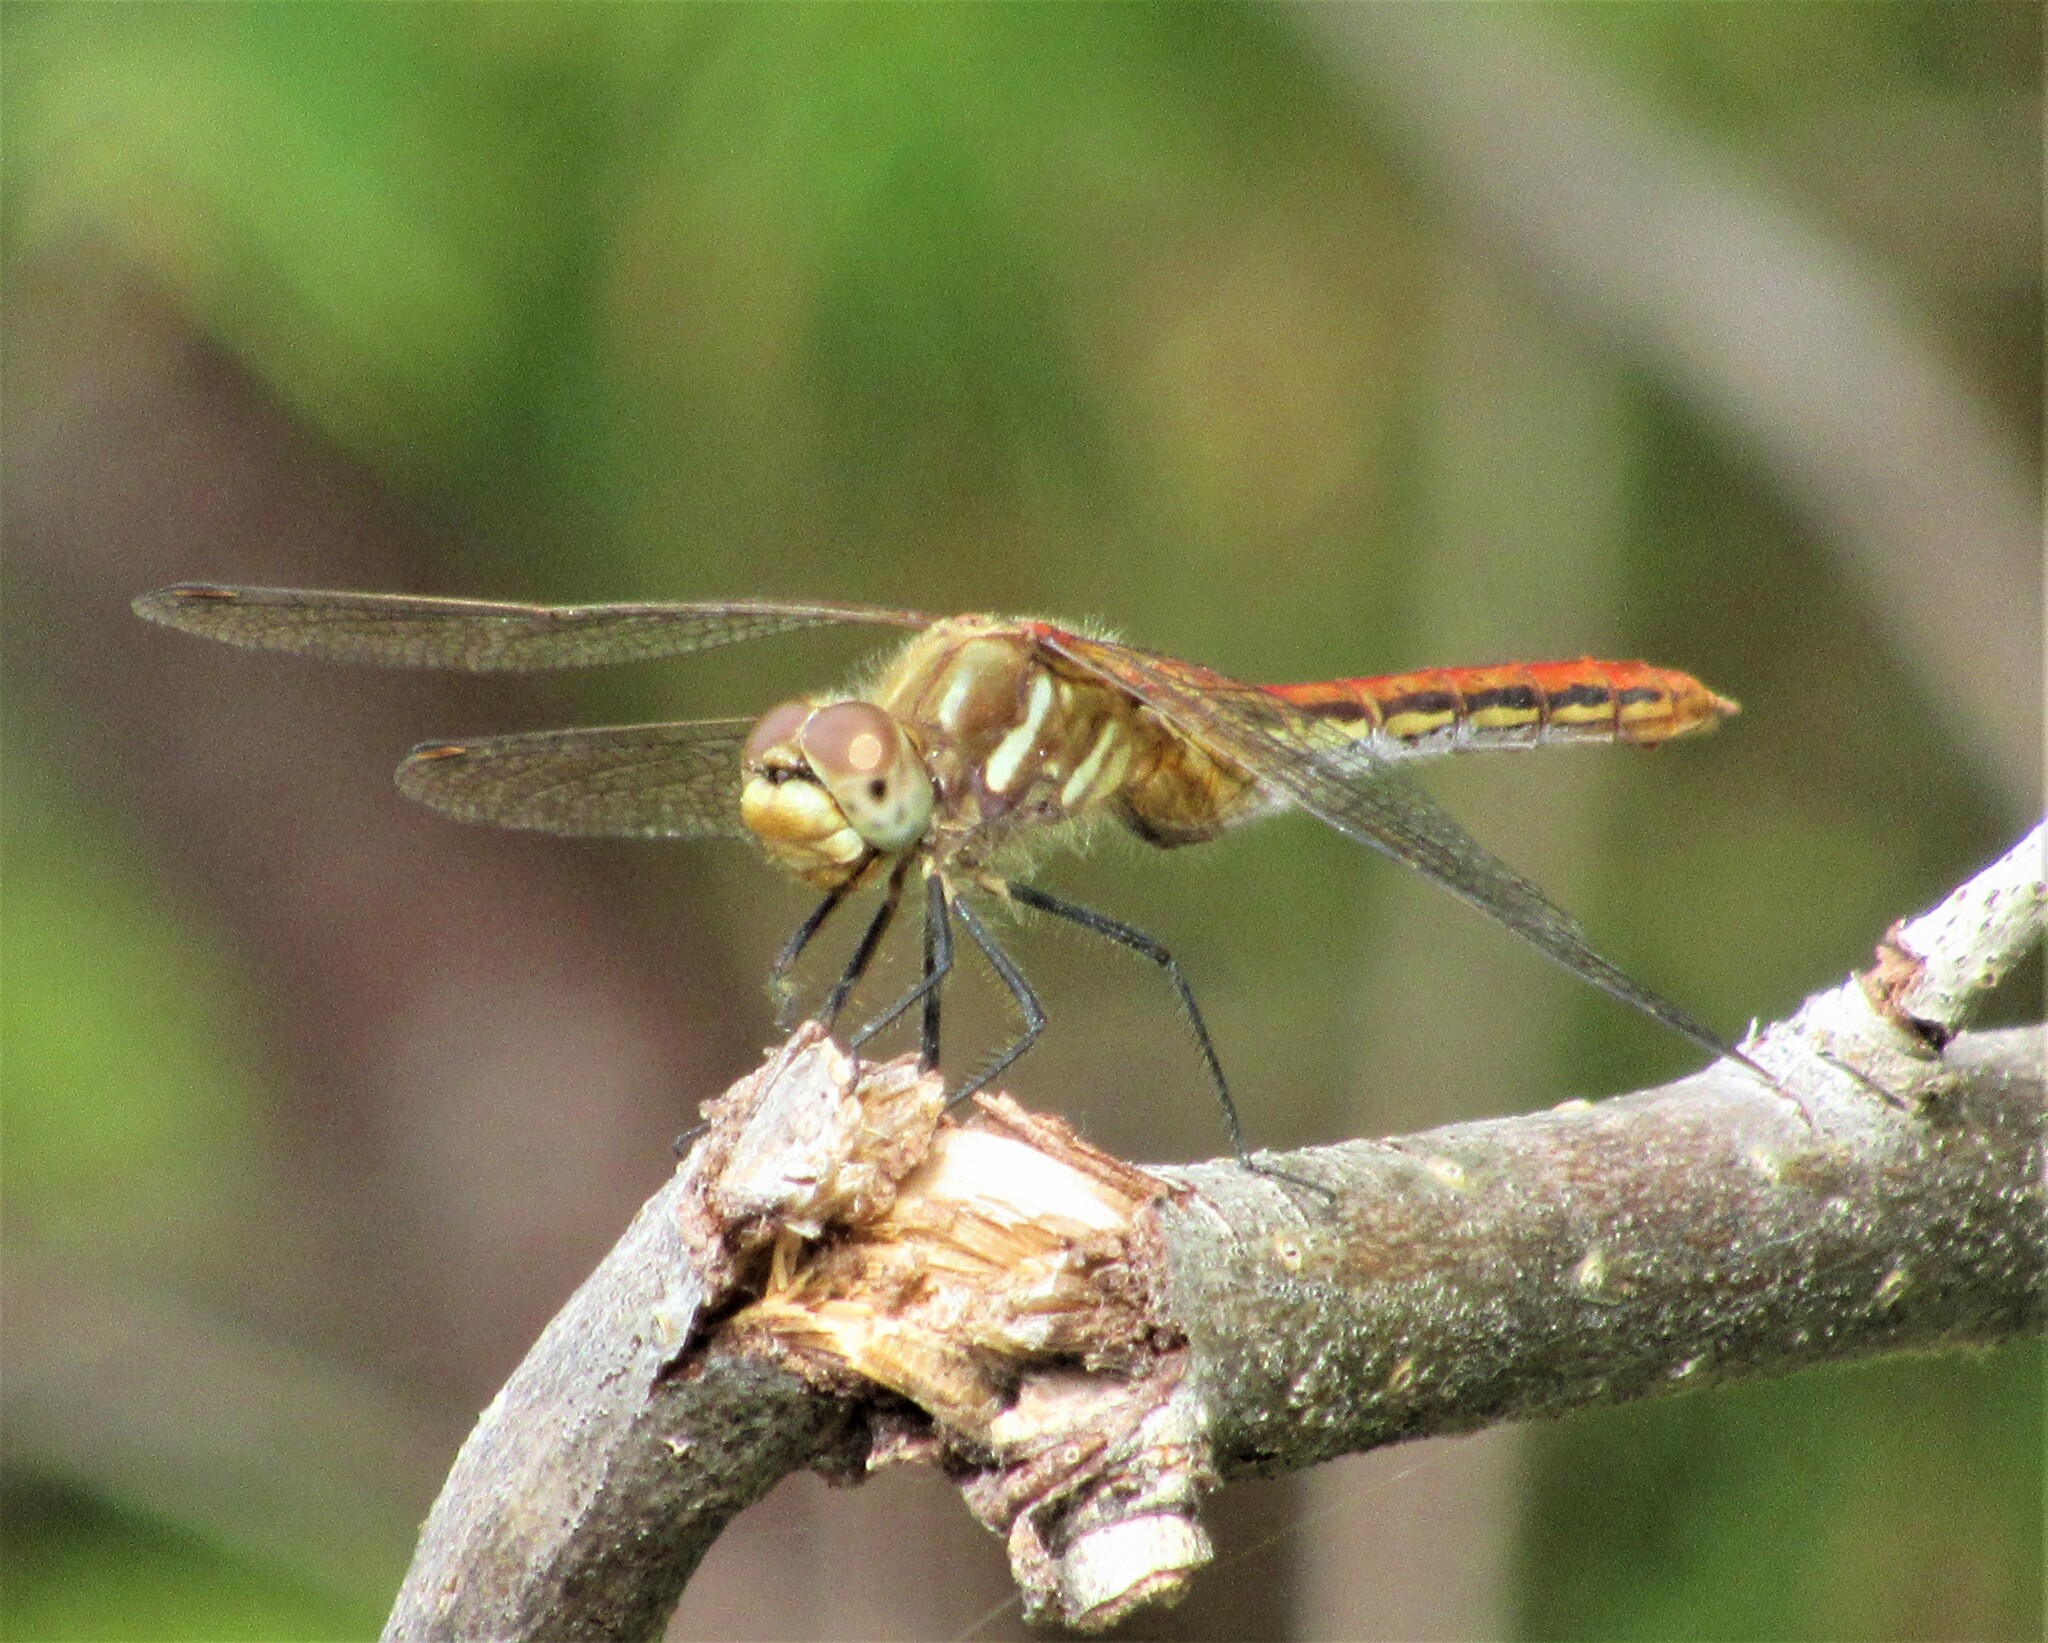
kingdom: Animalia
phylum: Arthropoda
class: Insecta
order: Odonata
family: Libellulidae
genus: Sympetrum
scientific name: Sympetrum pallipes
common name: Striped meadowhawk
